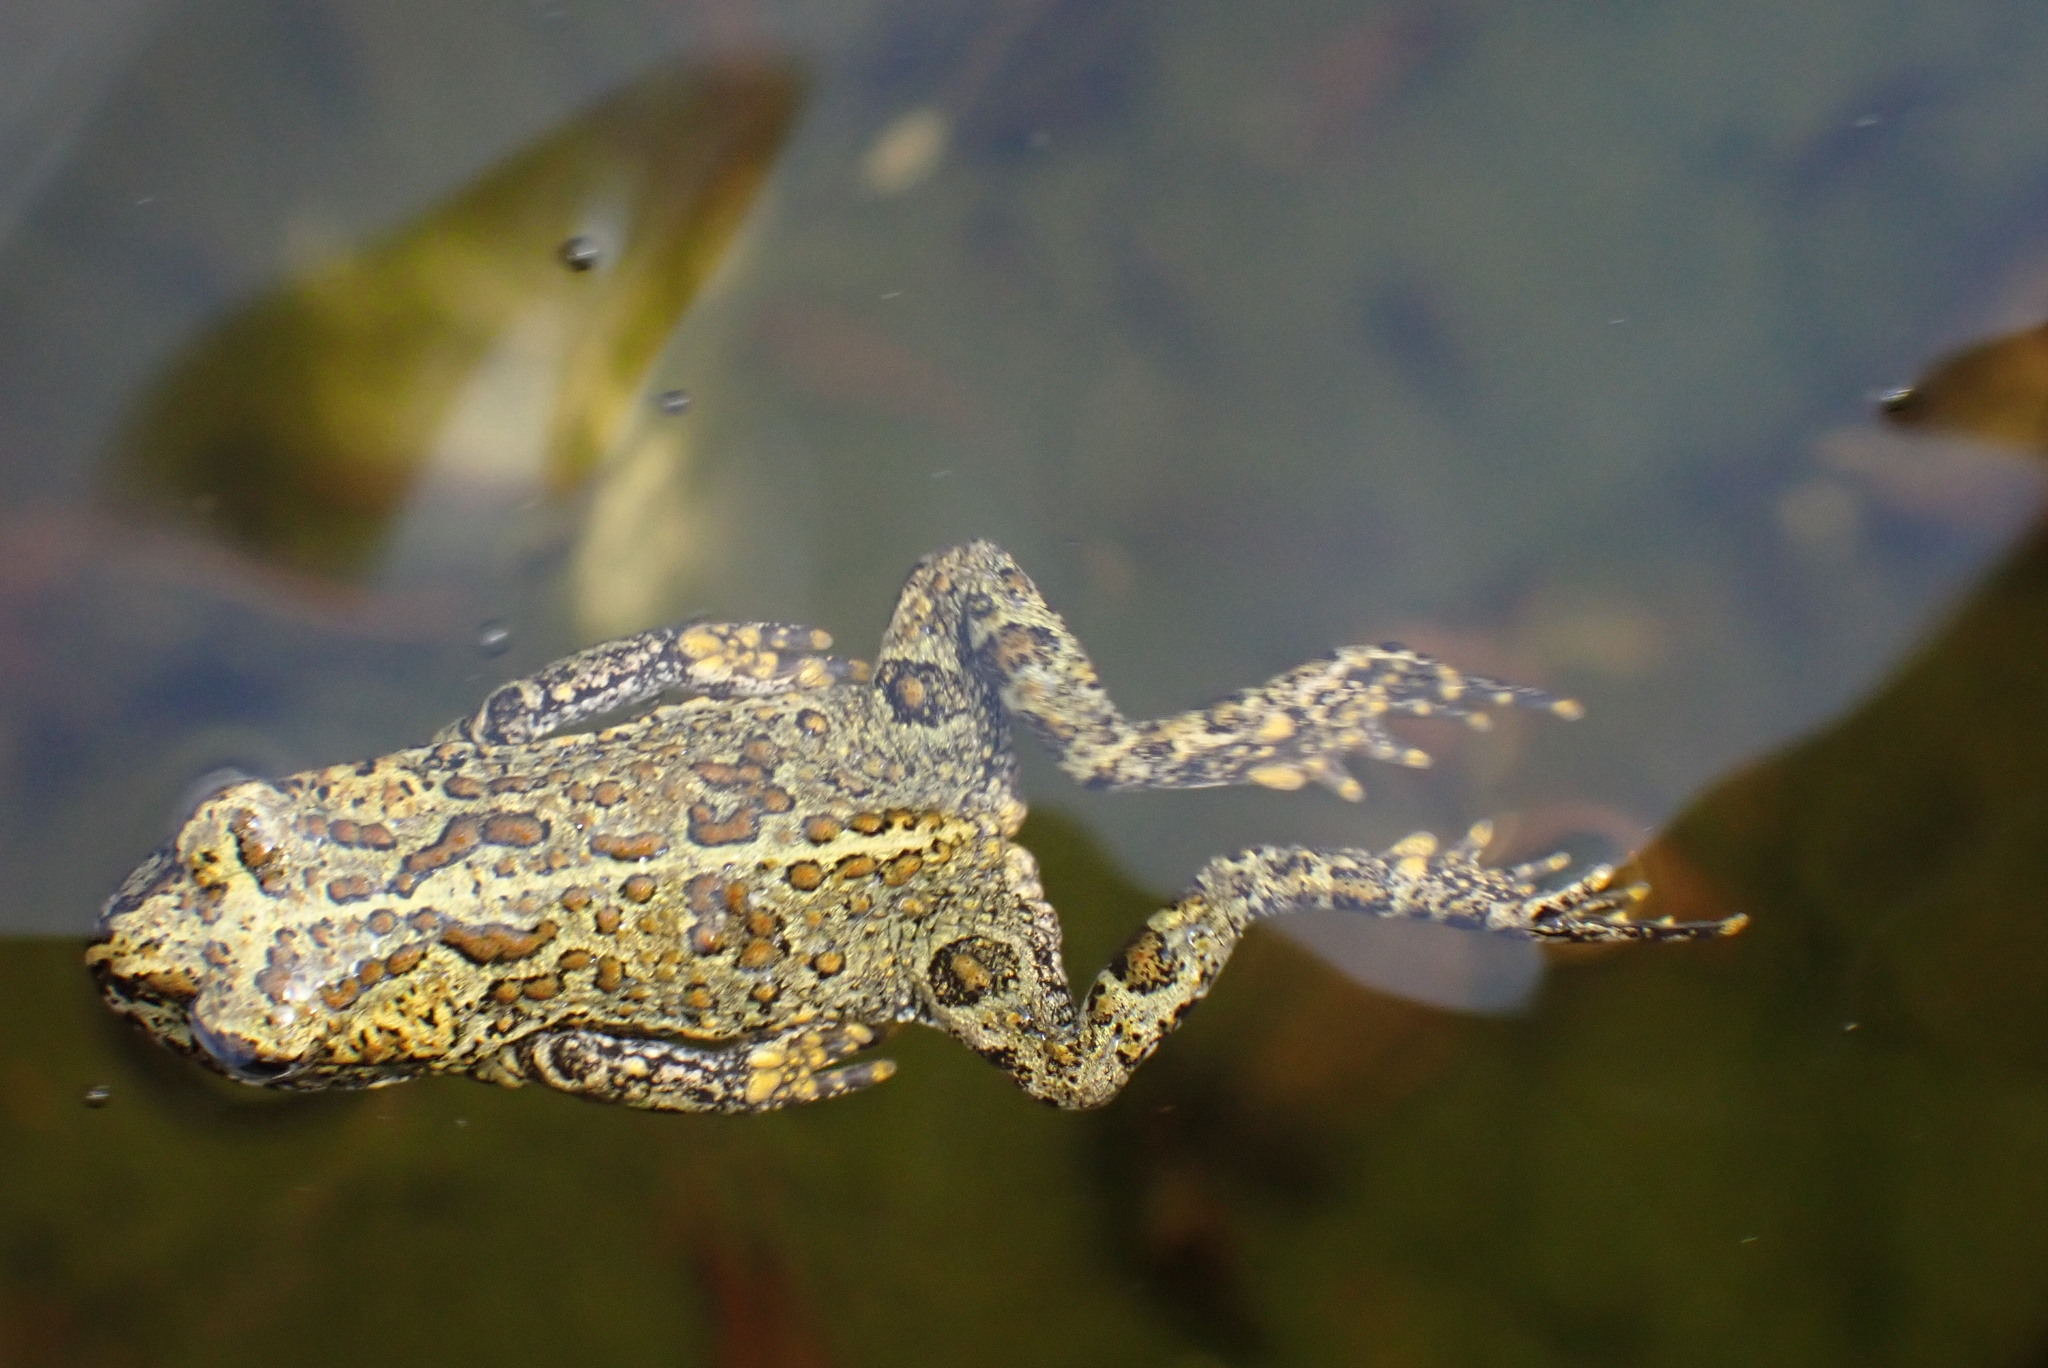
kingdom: Animalia
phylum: Chordata
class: Amphibia
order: Anura
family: Bufonidae
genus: Anaxyrus
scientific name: Anaxyrus boreas
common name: Western toad
